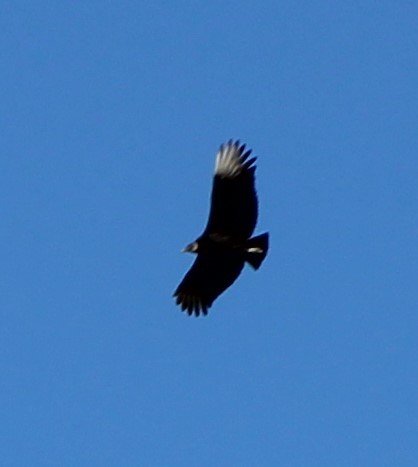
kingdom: Animalia
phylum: Chordata
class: Aves
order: Accipitriformes
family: Cathartidae
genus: Coragyps
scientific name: Coragyps atratus
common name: Black vulture
